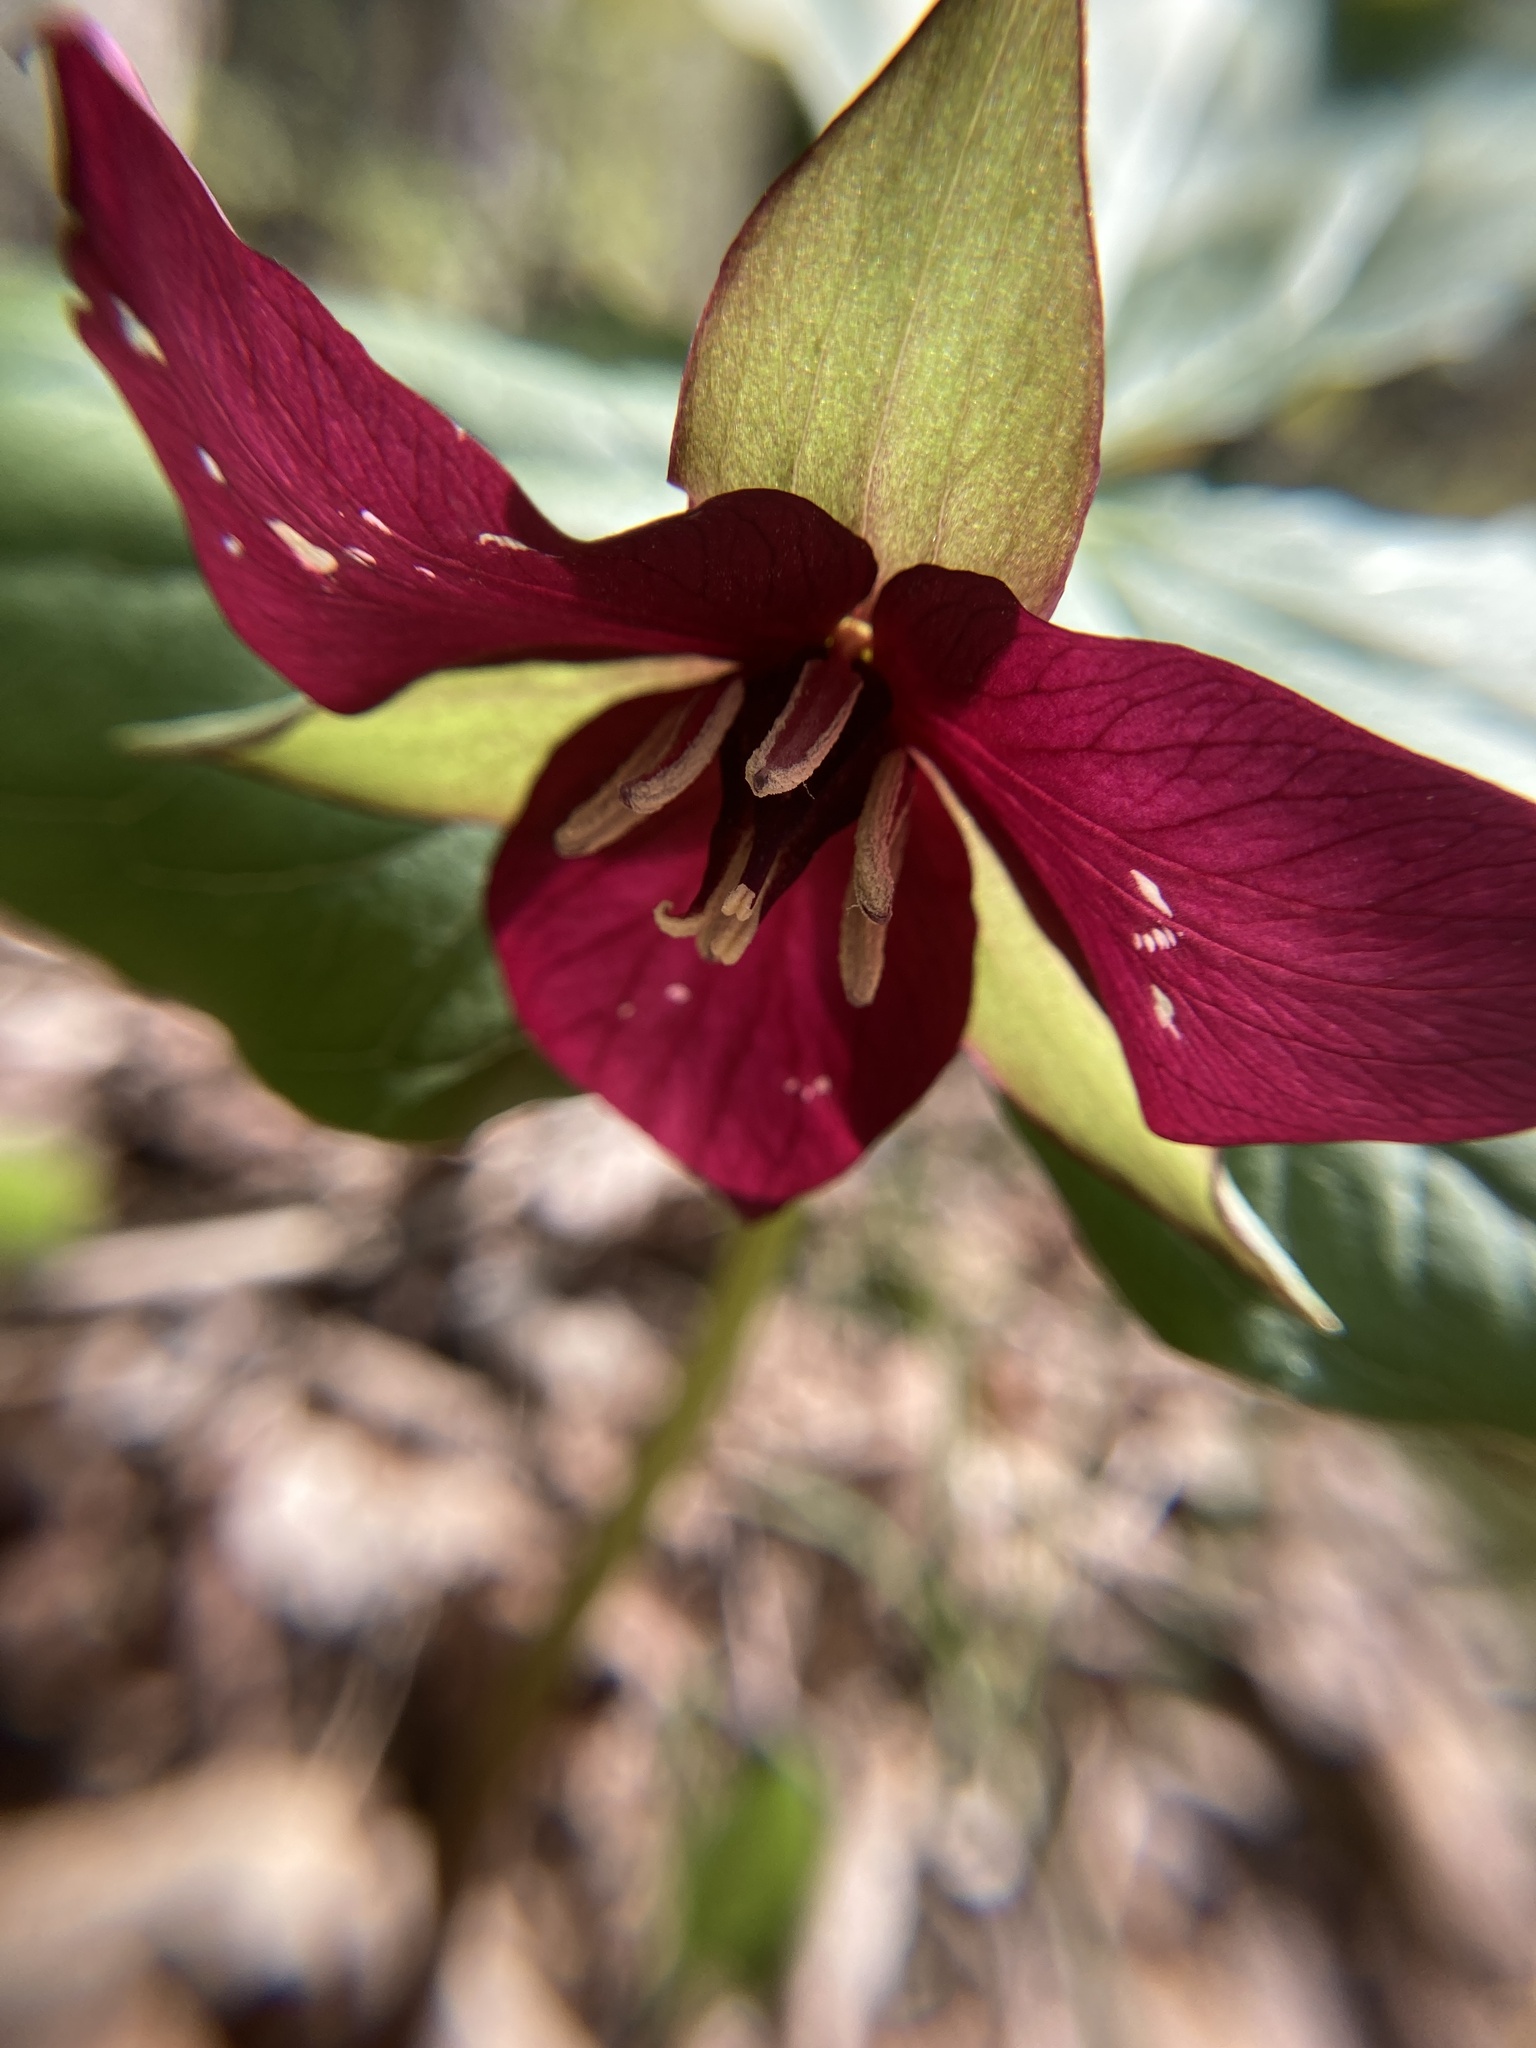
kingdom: Plantae
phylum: Tracheophyta
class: Liliopsida
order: Liliales
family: Melanthiaceae
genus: Trillium
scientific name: Trillium erectum
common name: Purple trillium
